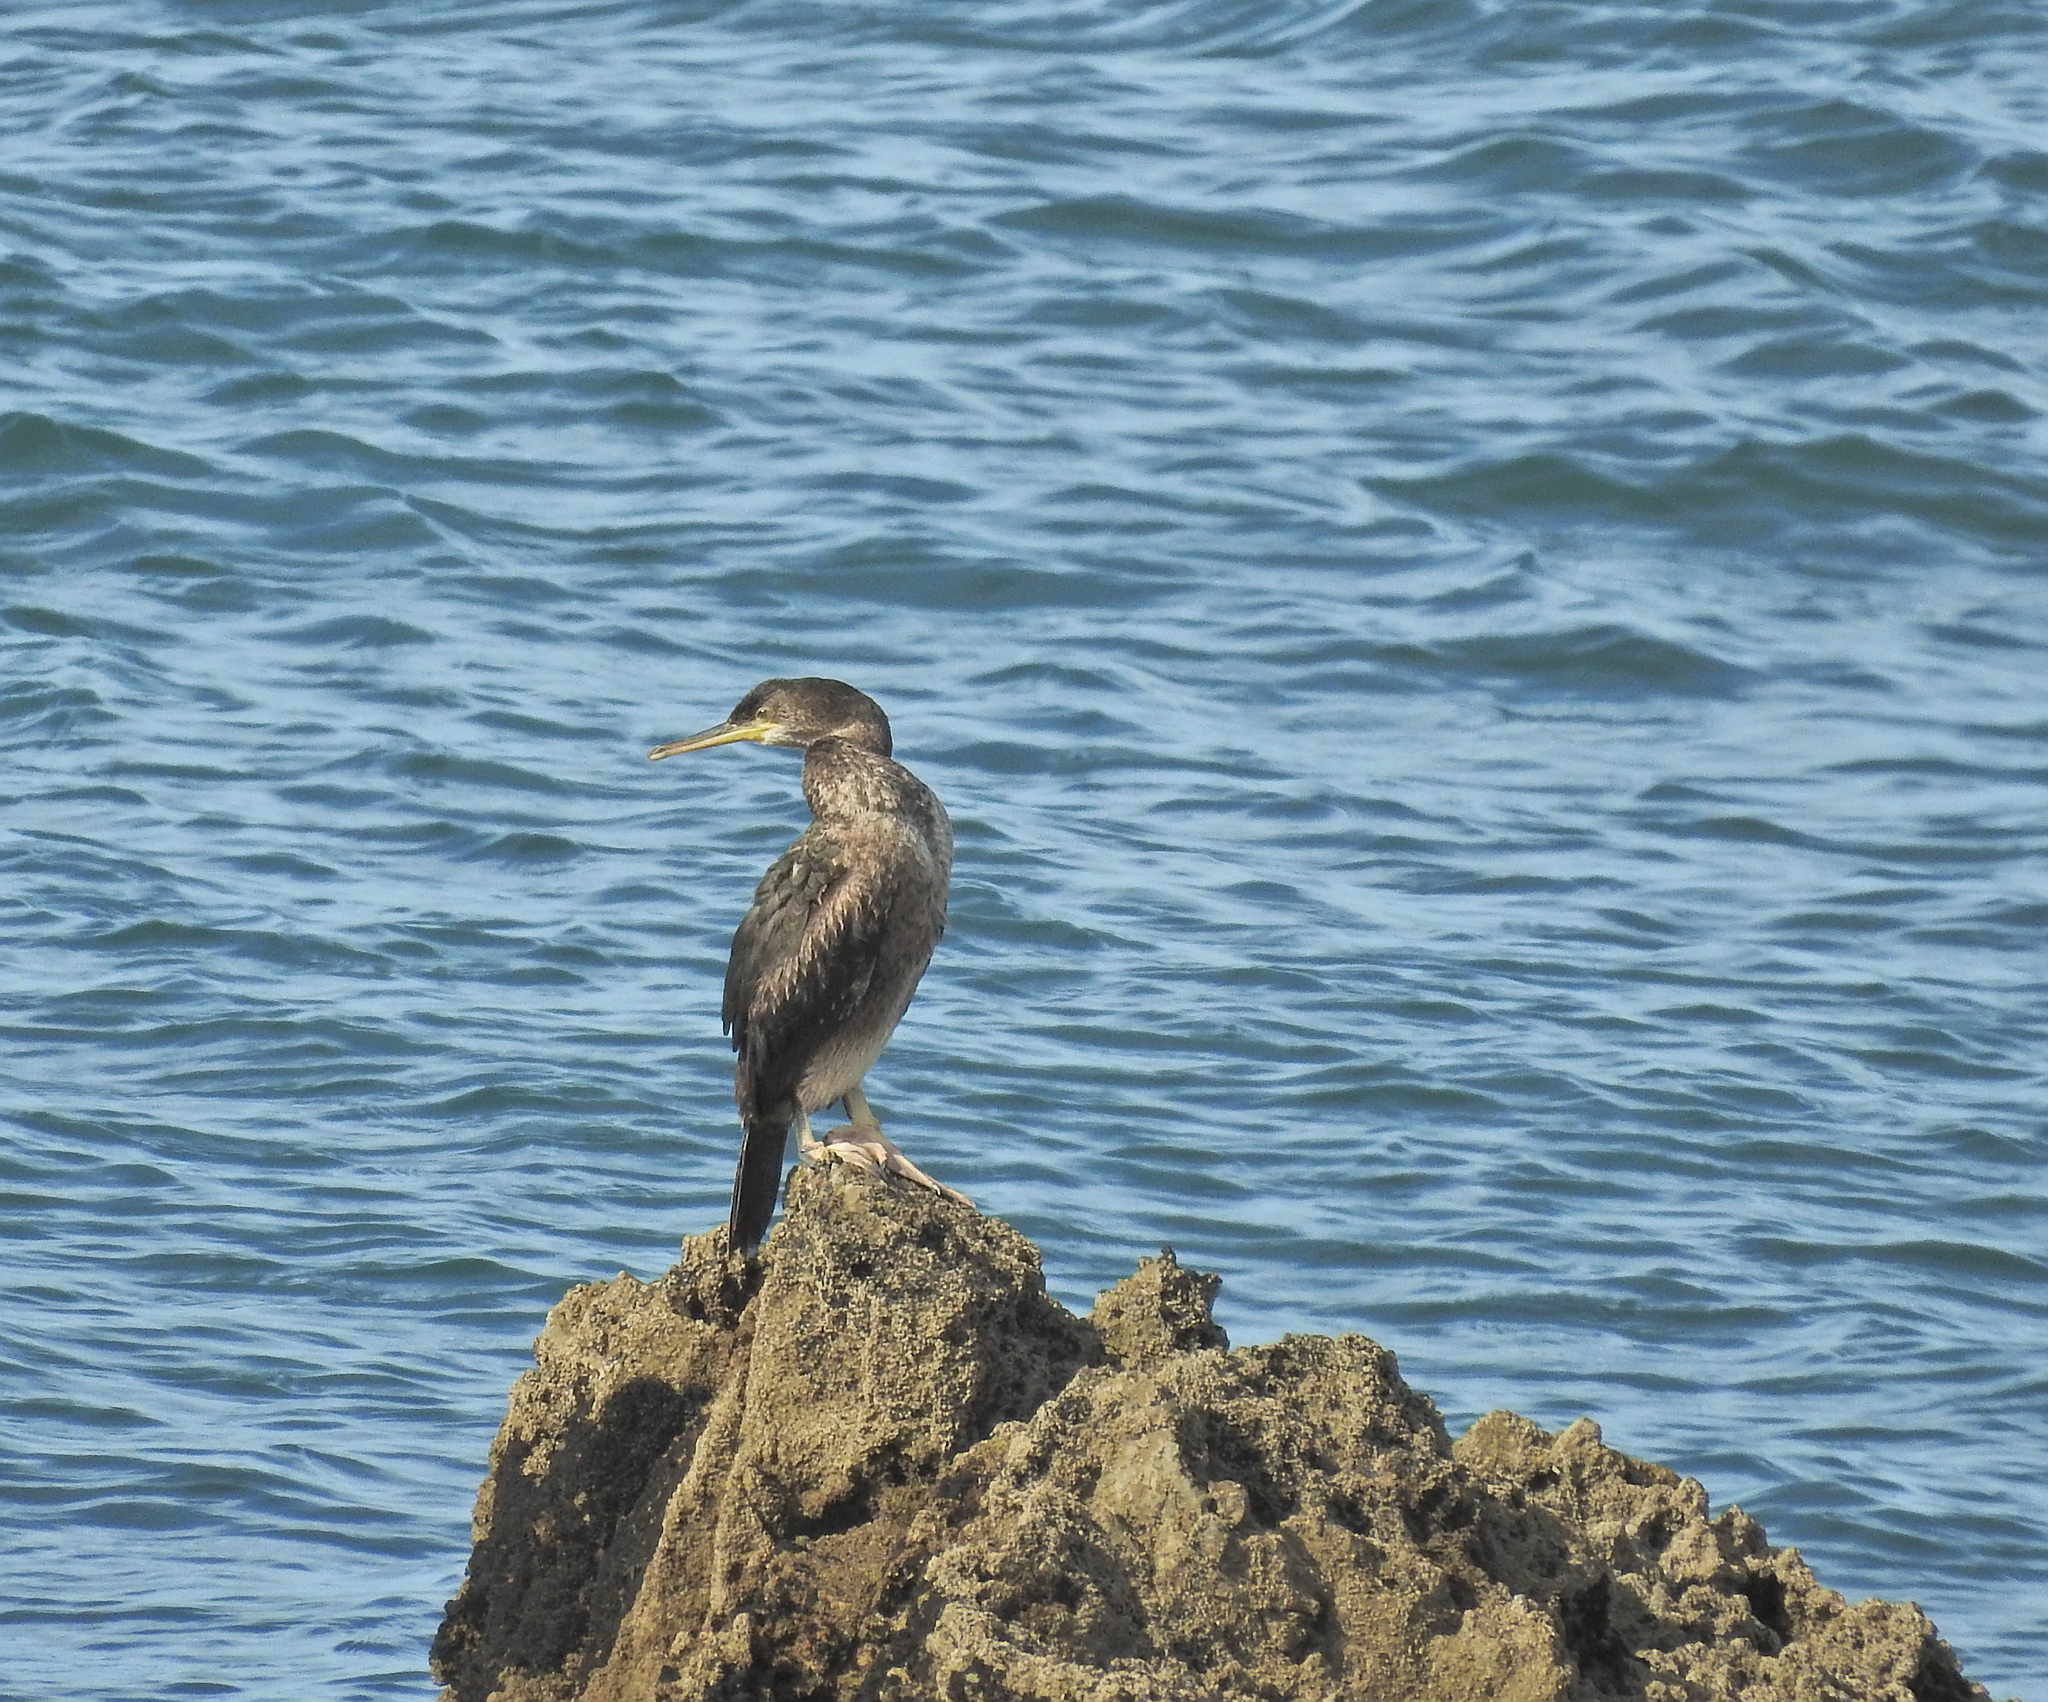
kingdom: Animalia
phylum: Chordata
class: Aves
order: Suliformes
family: Phalacrocoracidae
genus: Phalacrocorax
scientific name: Phalacrocorax aristotelis
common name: European shag
